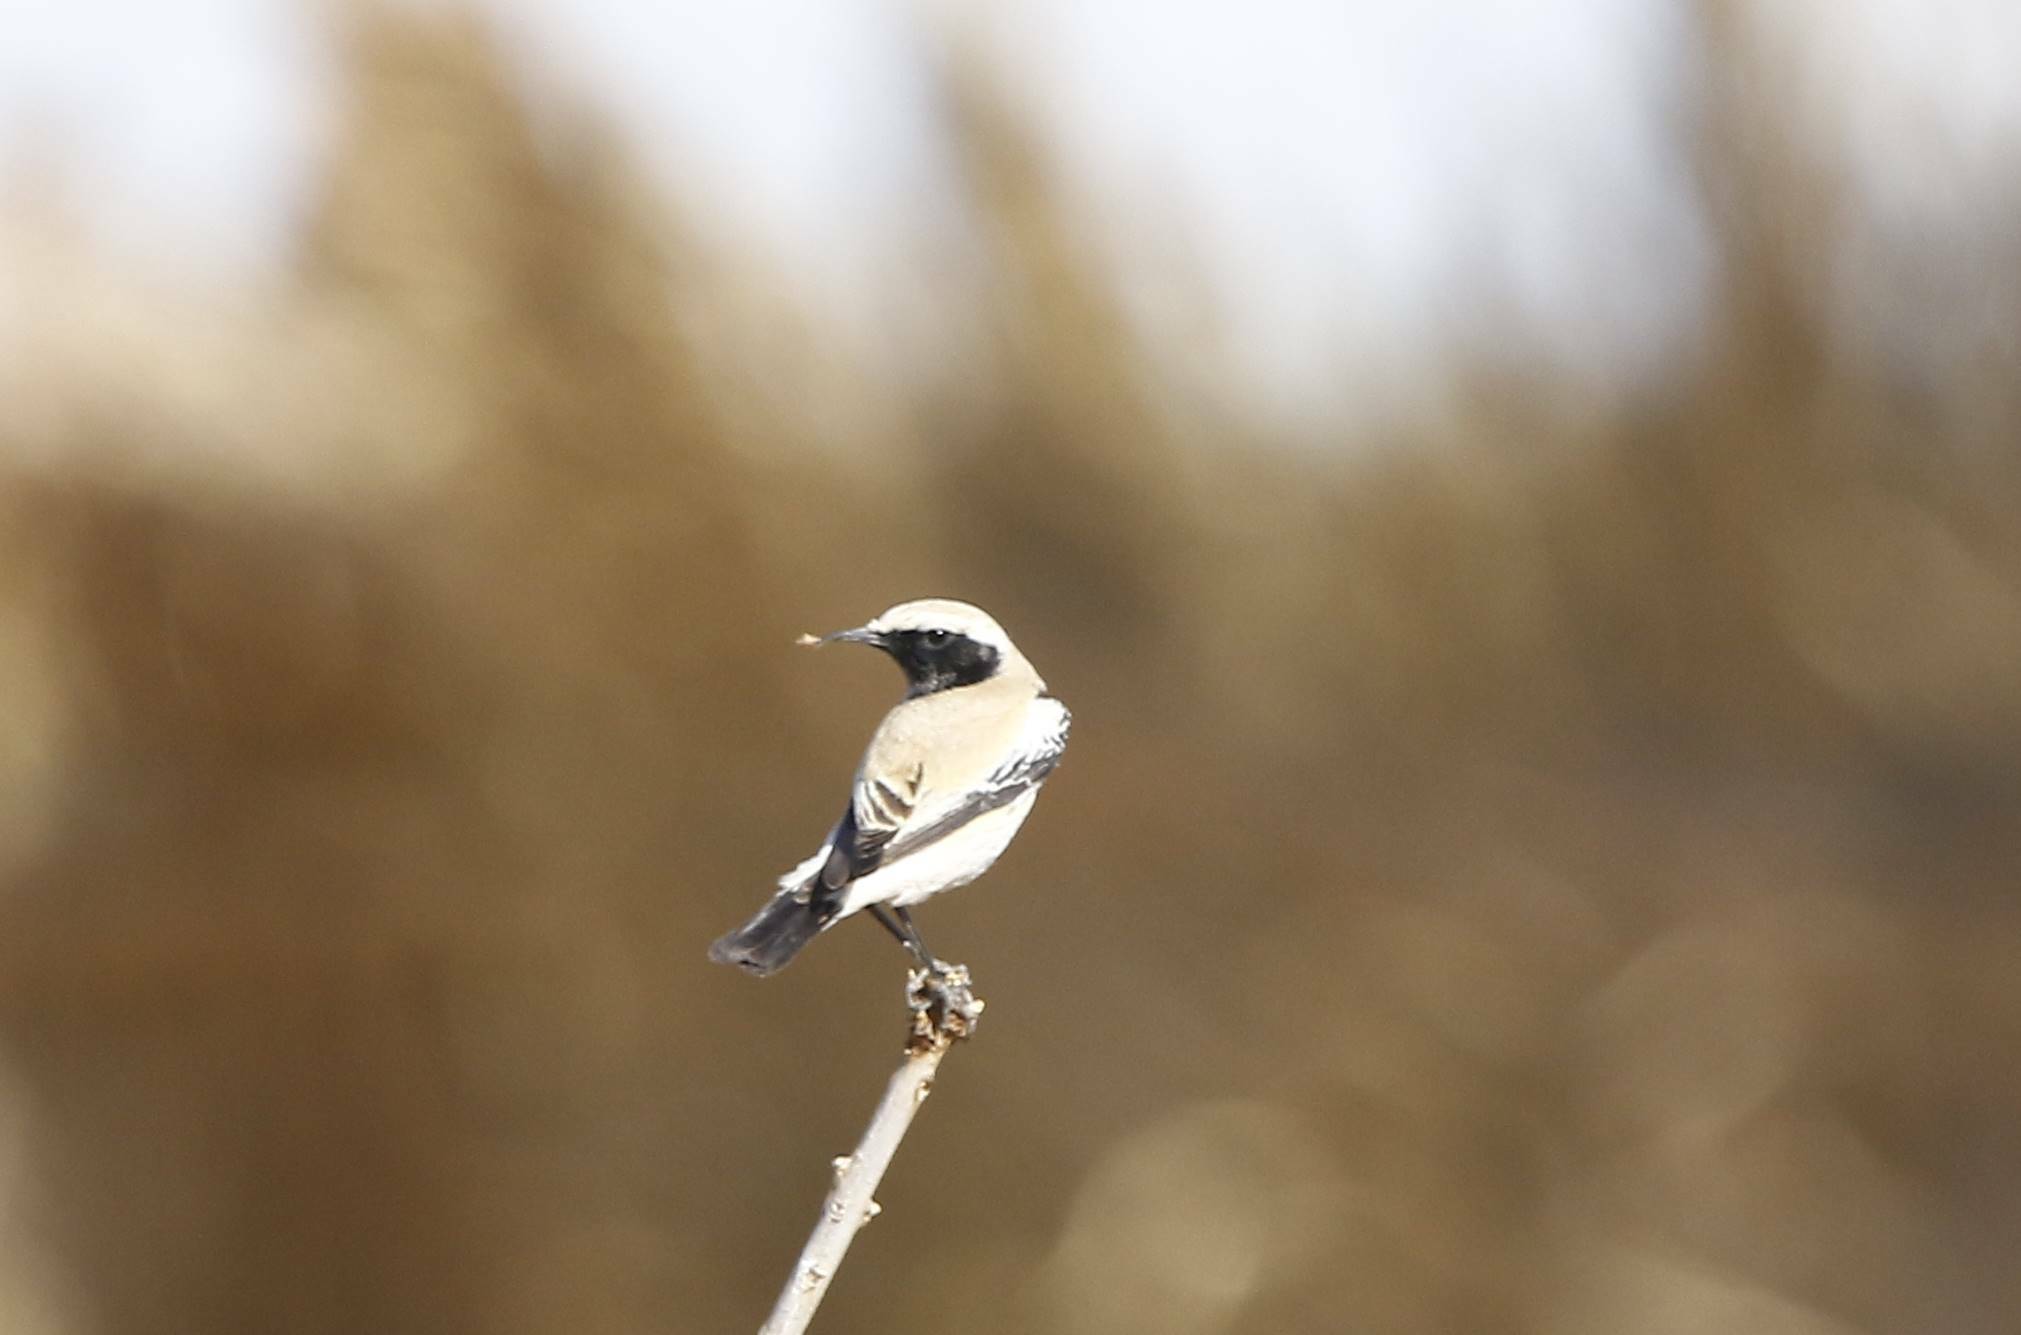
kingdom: Animalia
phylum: Chordata
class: Aves
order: Passeriformes
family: Muscicapidae
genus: Oenanthe
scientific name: Oenanthe deserti
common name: Desert wheatear
